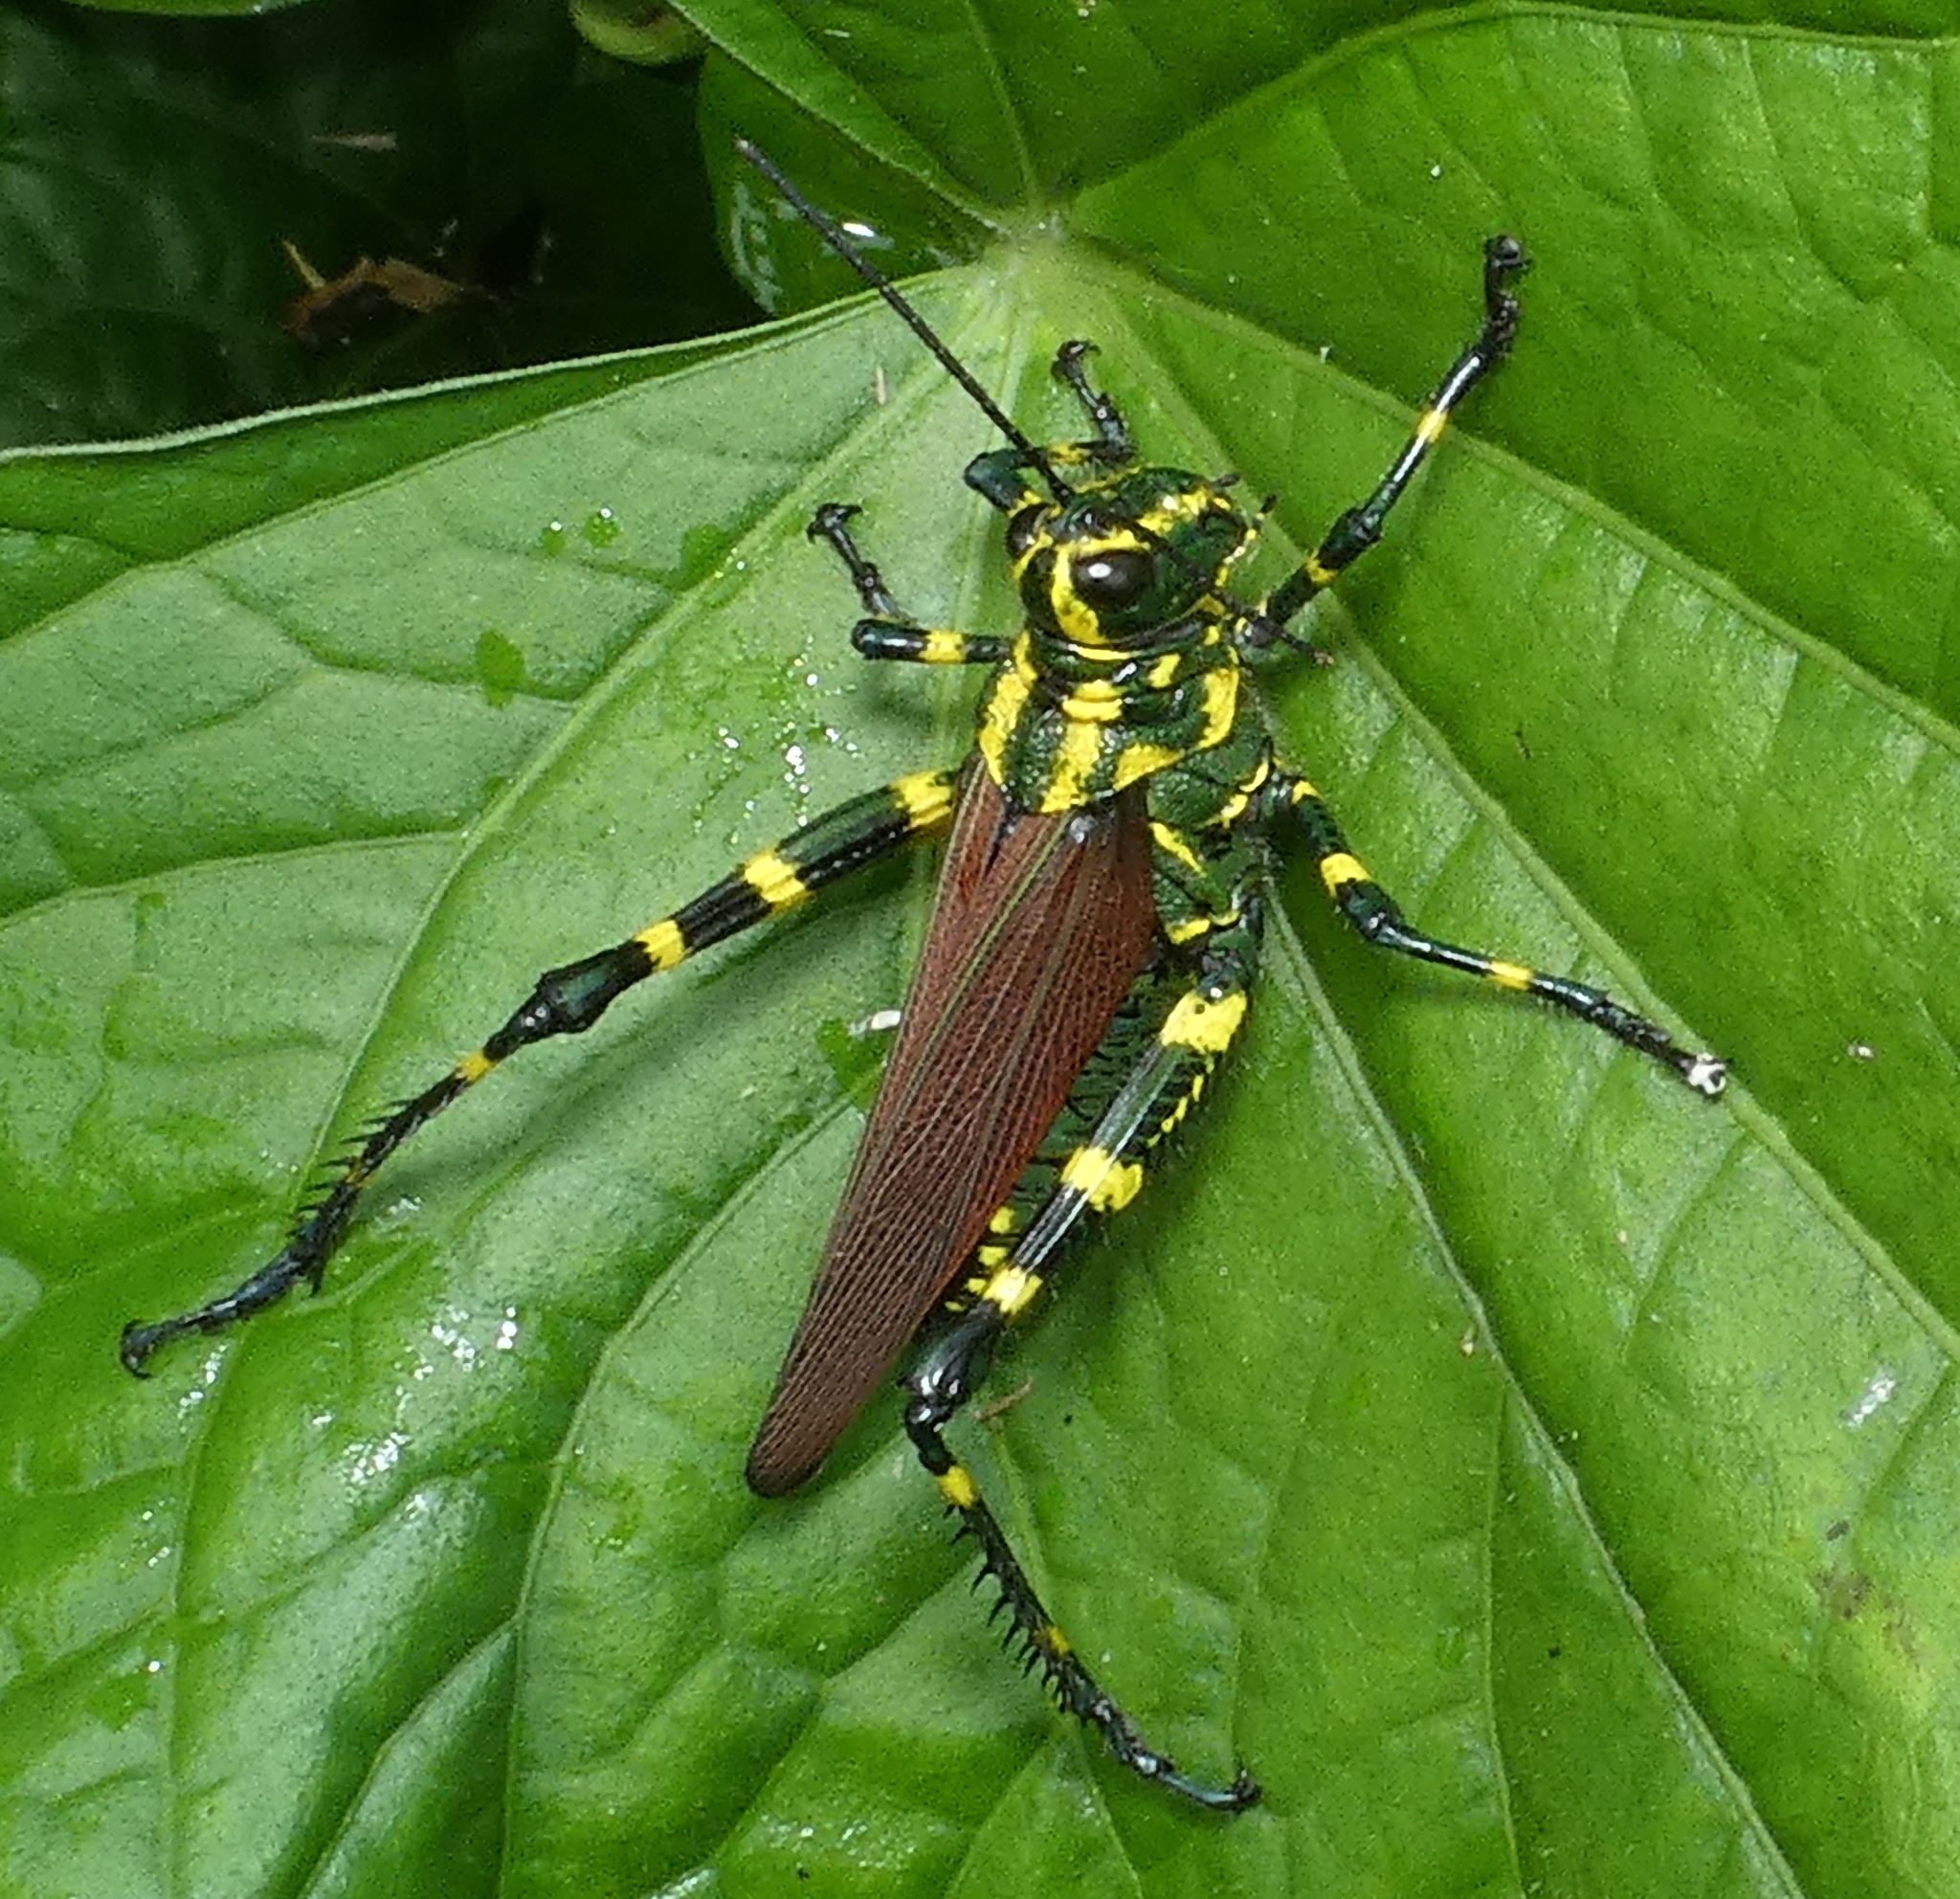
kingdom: Animalia
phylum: Arthropoda
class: Insecta
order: Orthoptera
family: Romaleidae
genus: Chromacris
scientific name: Chromacris speciosa
